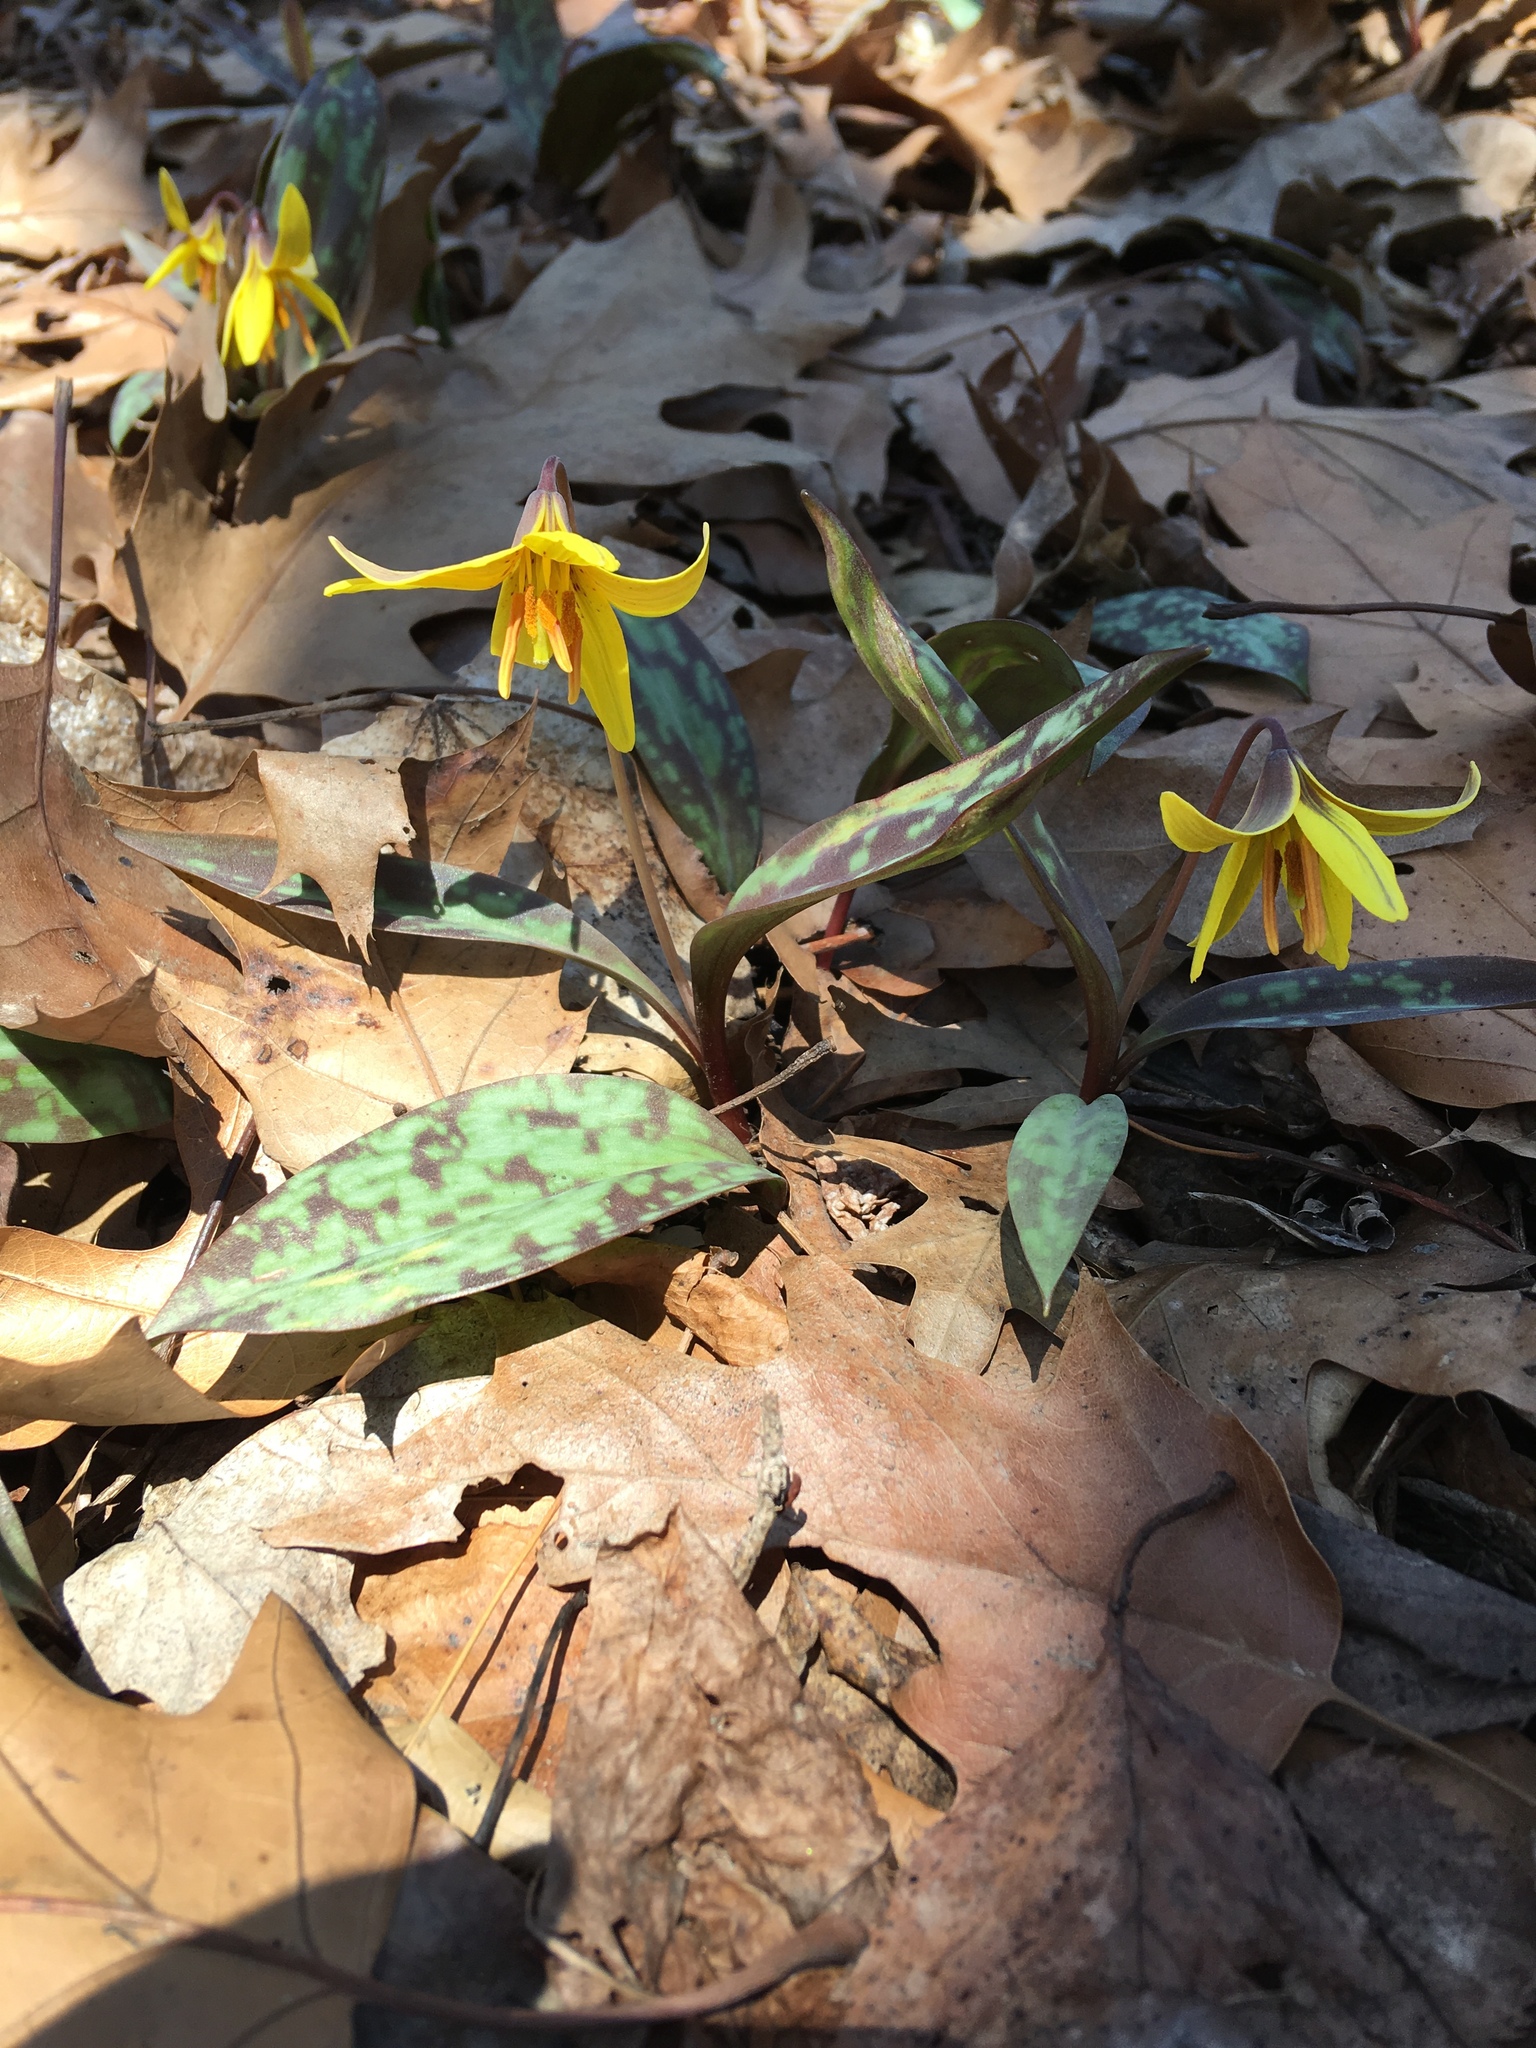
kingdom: Plantae
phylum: Tracheophyta
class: Liliopsida
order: Liliales
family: Liliaceae
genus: Erythronium
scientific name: Erythronium americanum
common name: Yellow adder's-tongue
